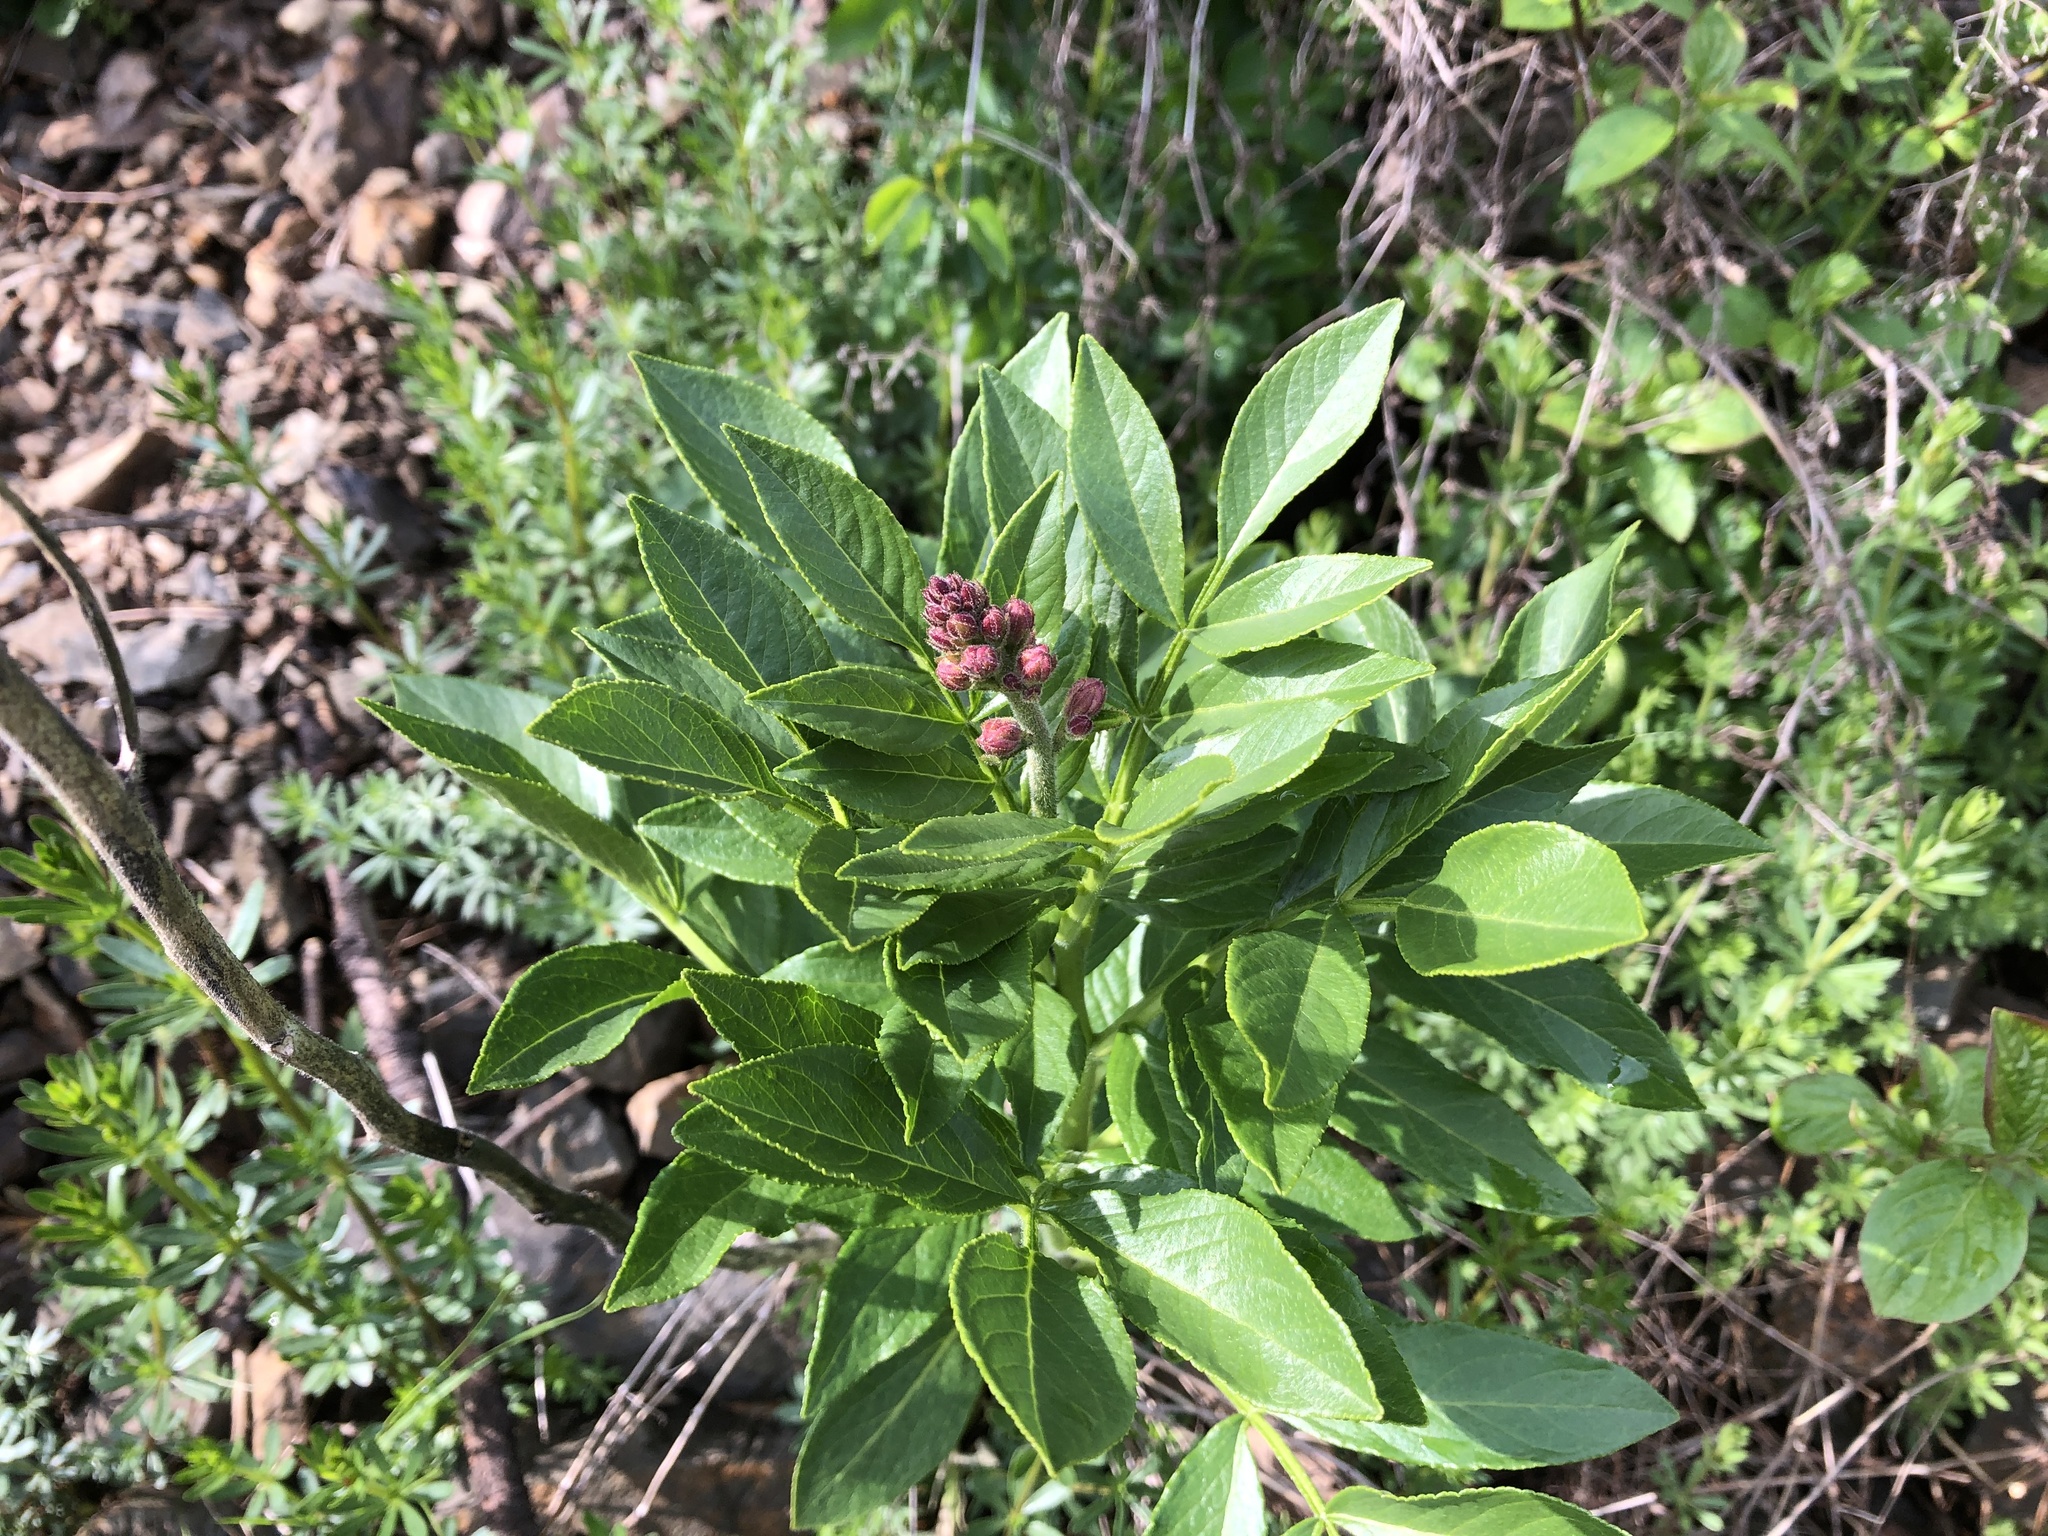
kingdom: Plantae
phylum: Tracheophyta
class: Magnoliopsida
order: Sapindales
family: Rutaceae
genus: Dictamnus
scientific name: Dictamnus albus
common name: Gasplant
